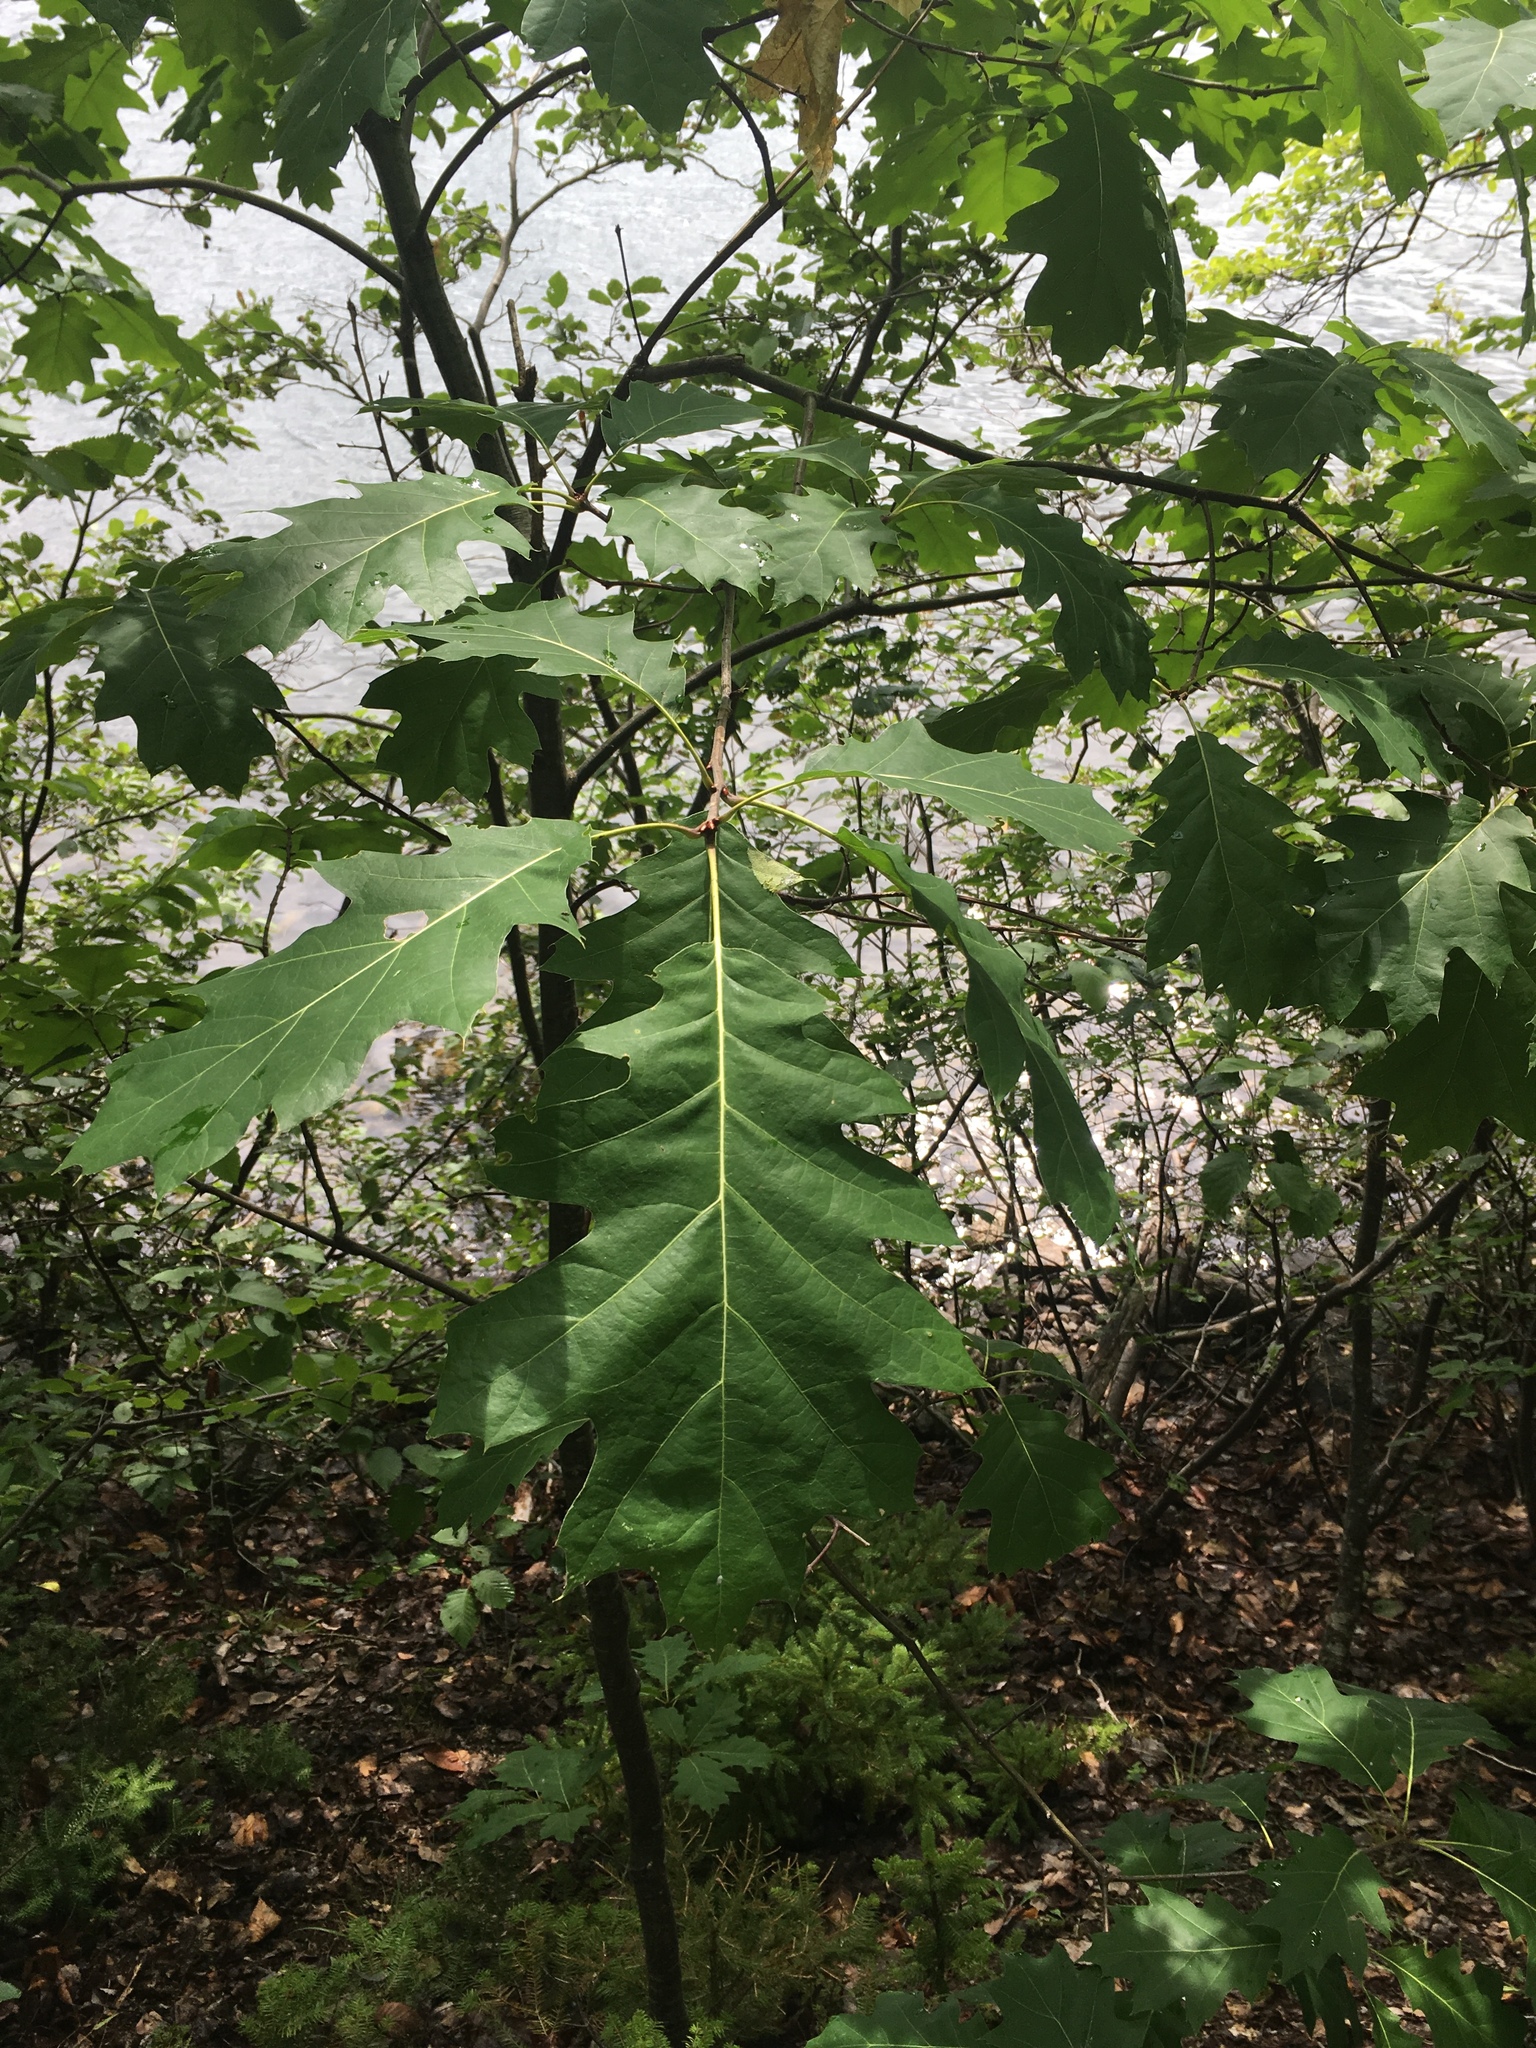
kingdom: Plantae
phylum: Tracheophyta
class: Magnoliopsida
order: Fagales
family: Fagaceae
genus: Quercus
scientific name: Quercus rubra
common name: Red oak
